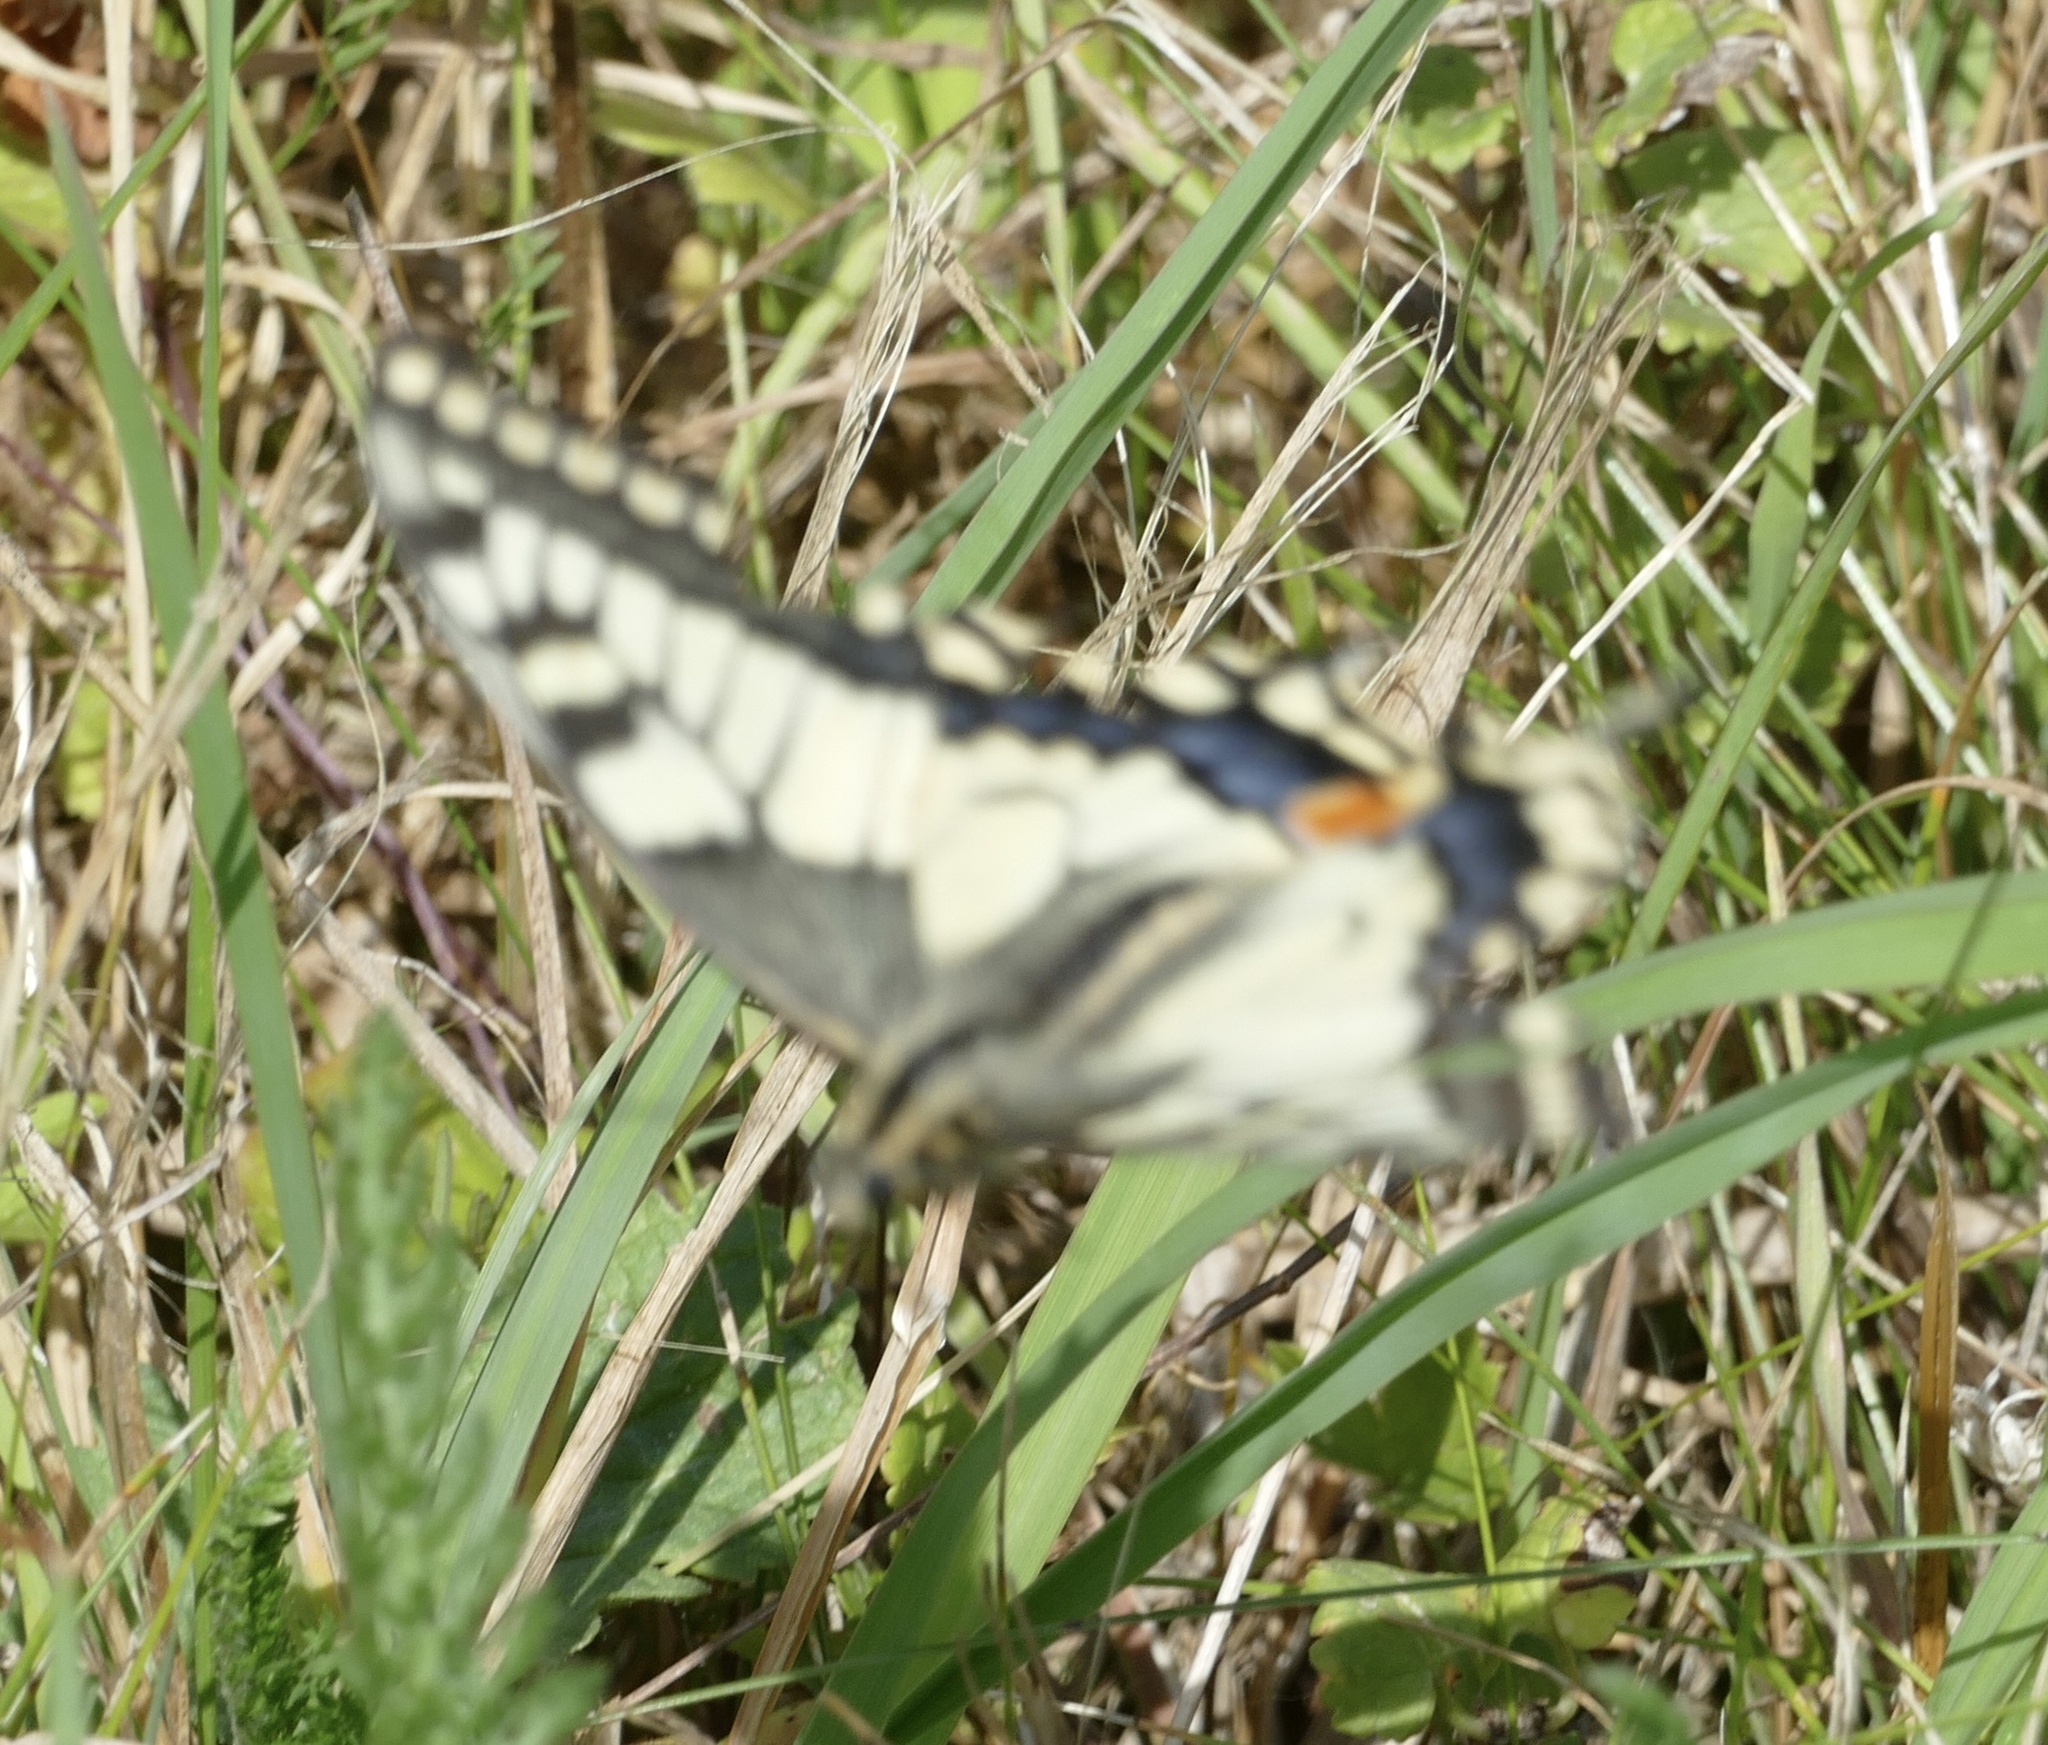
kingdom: Animalia
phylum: Arthropoda
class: Insecta
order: Lepidoptera
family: Papilionidae
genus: Papilio
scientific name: Papilio machaon
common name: Swallowtail
